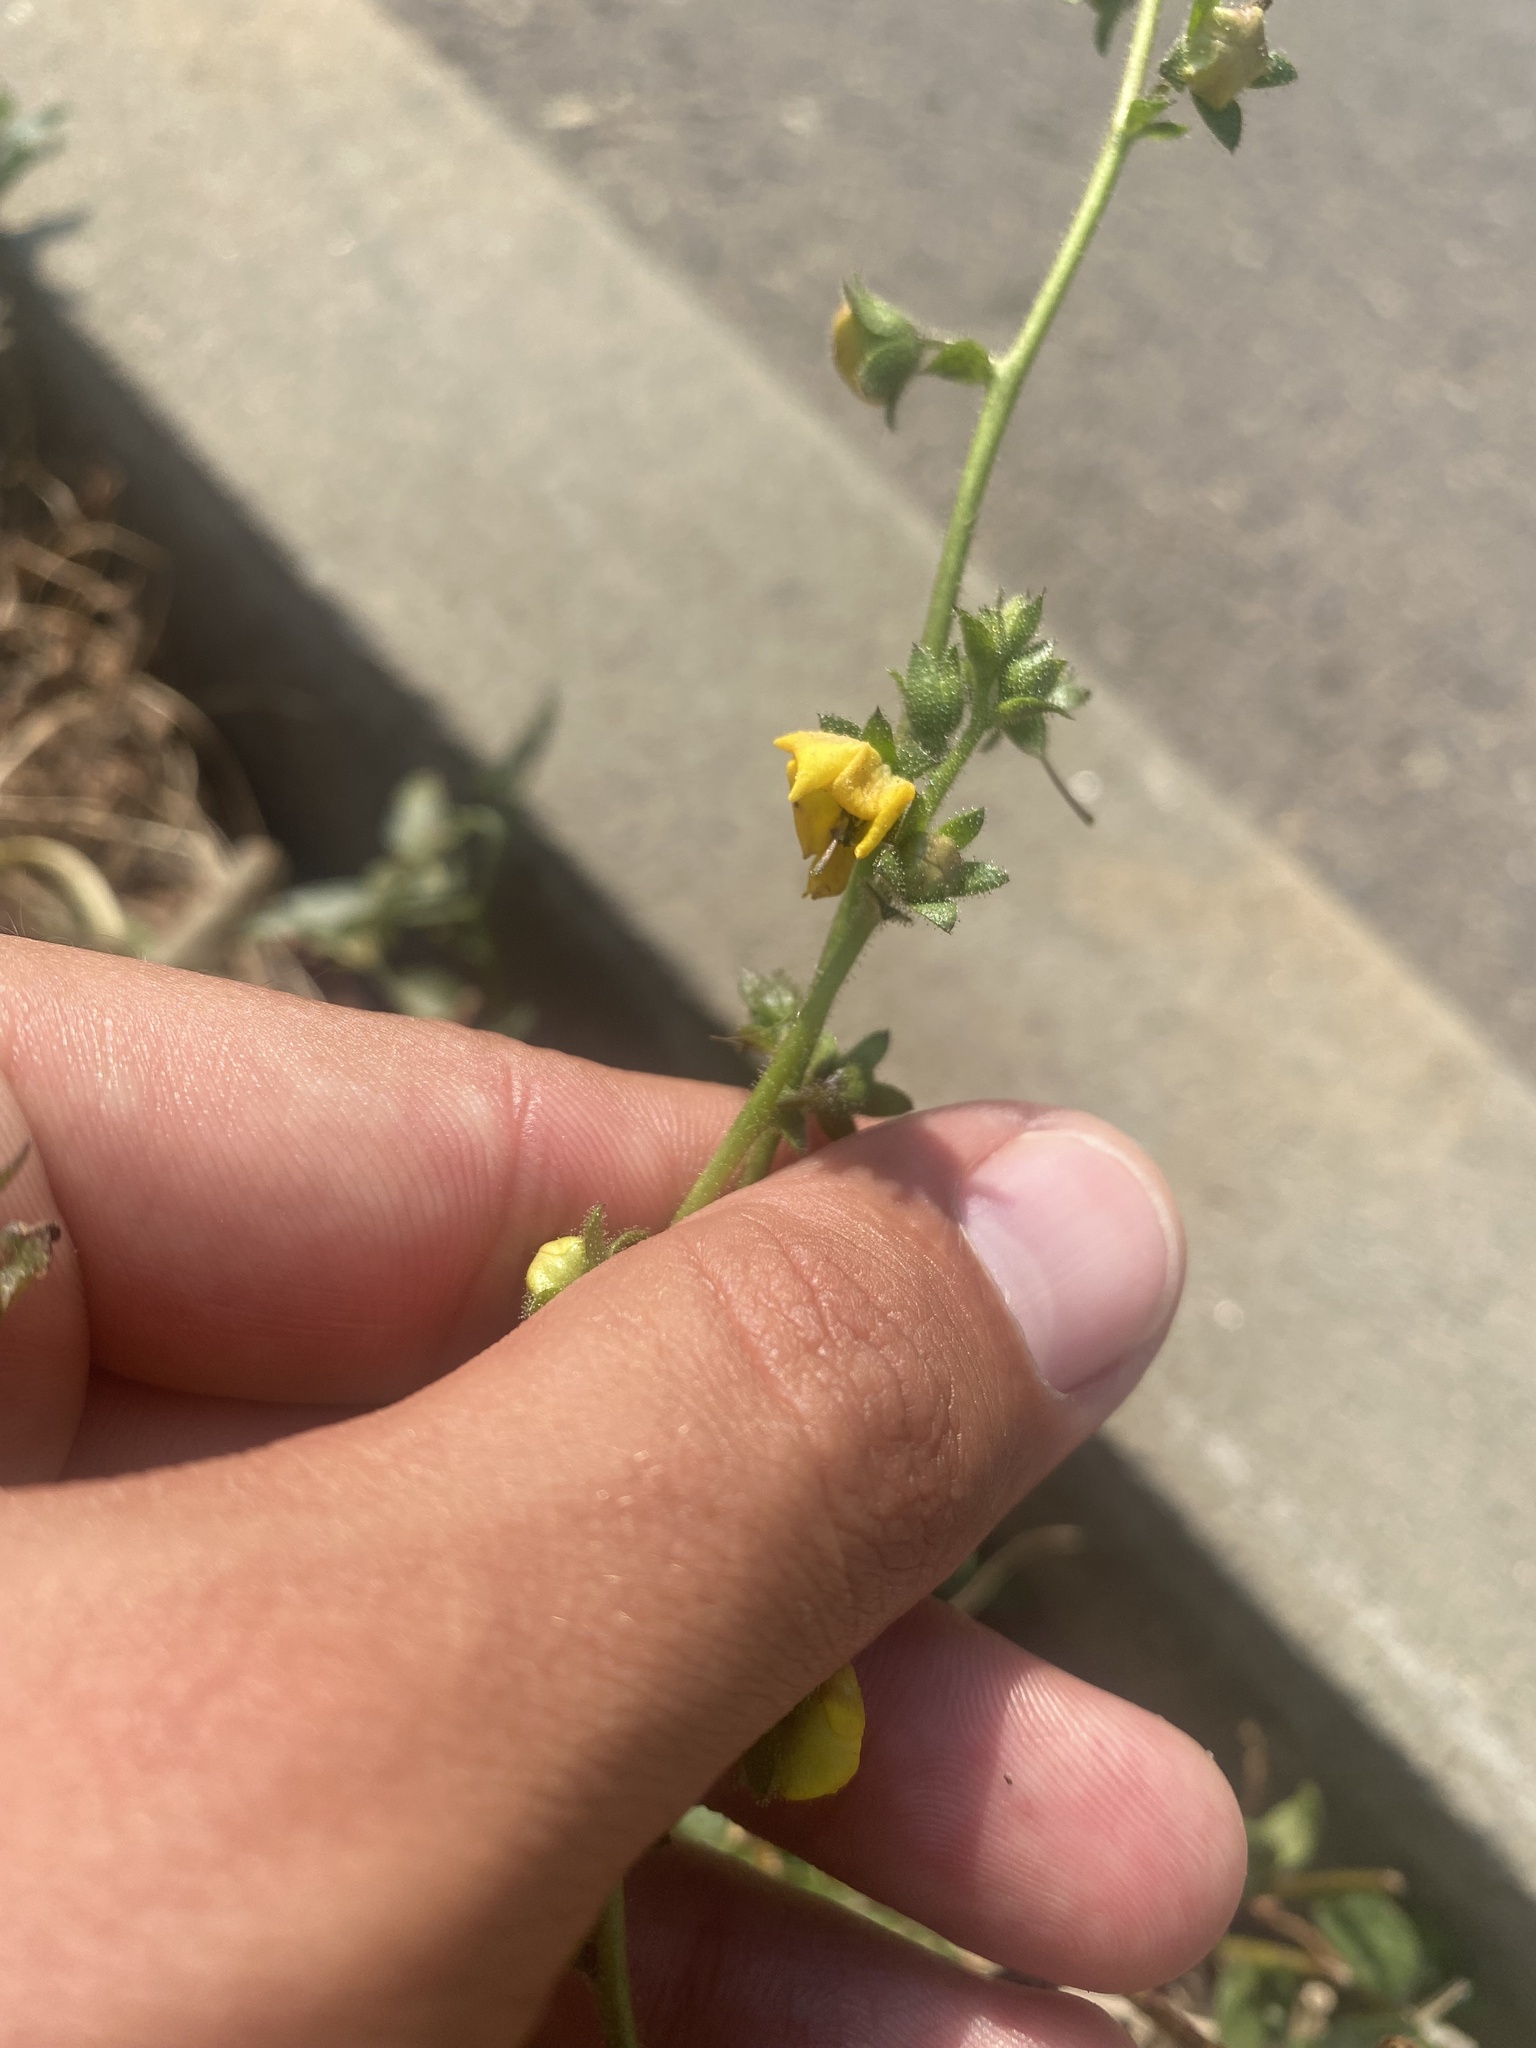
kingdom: Plantae
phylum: Tracheophyta
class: Magnoliopsida
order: Lamiales
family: Scrophulariaceae
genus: Verbascum
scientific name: Verbascum blattaria
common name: Moth mullein
